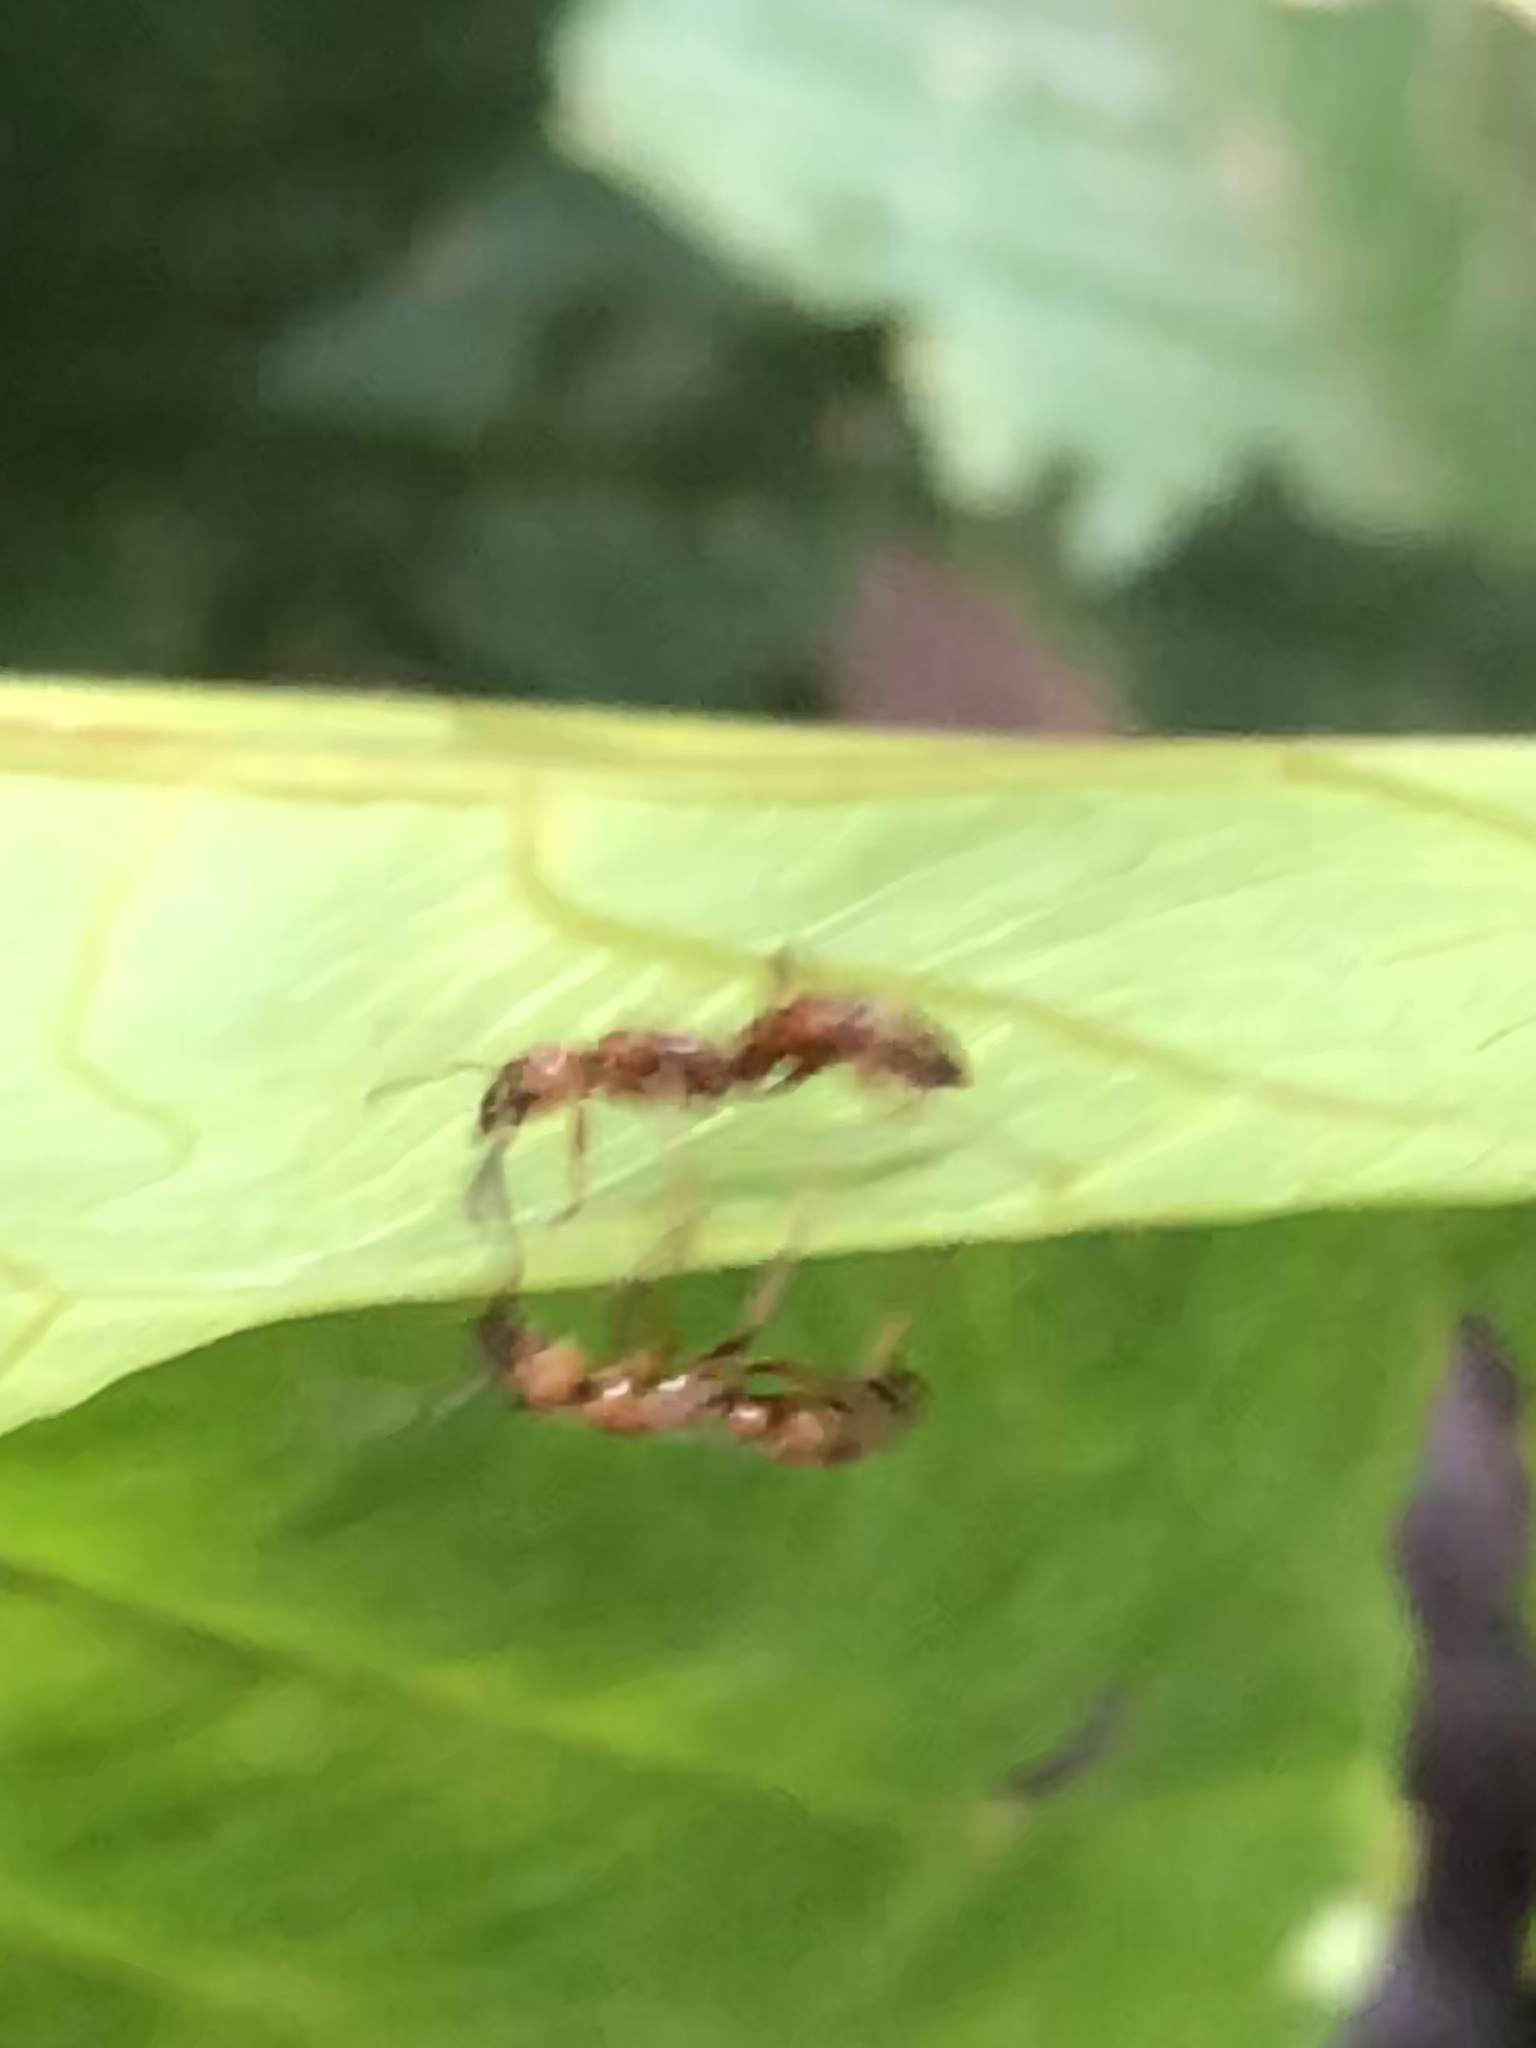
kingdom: Animalia
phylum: Arthropoda
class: Insecta
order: Hymenoptera
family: Formicidae
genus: Neoponera
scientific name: Neoponera
